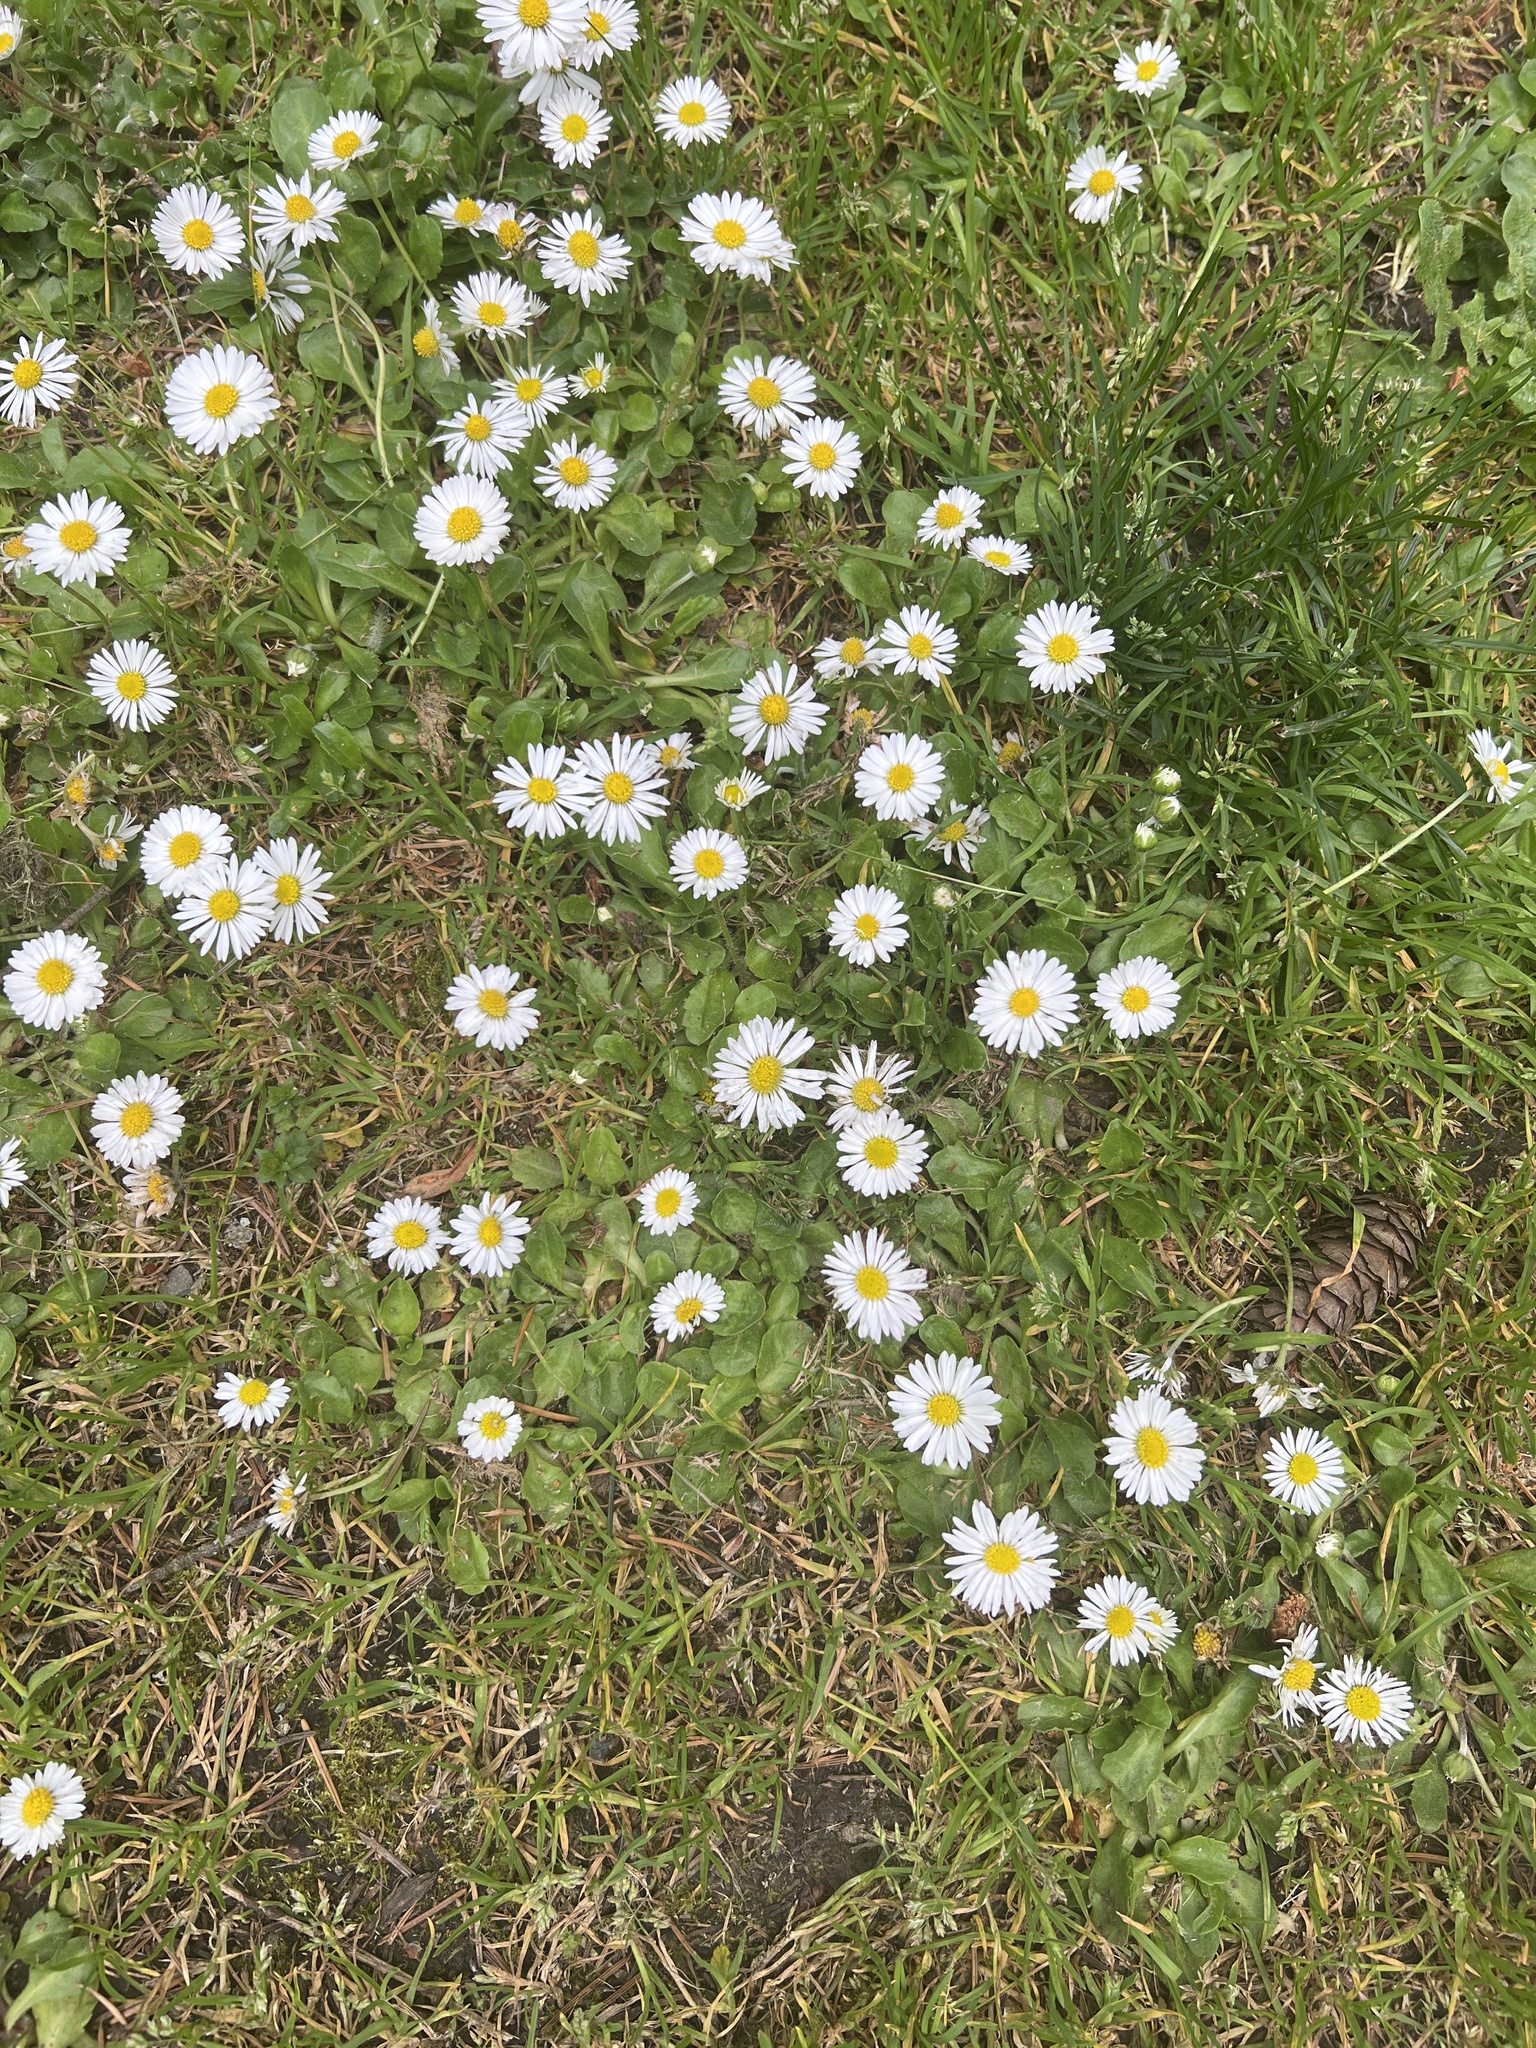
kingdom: Plantae
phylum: Tracheophyta
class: Magnoliopsida
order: Asterales
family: Asteraceae
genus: Bellis
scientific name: Bellis perennis
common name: Lawndaisy
